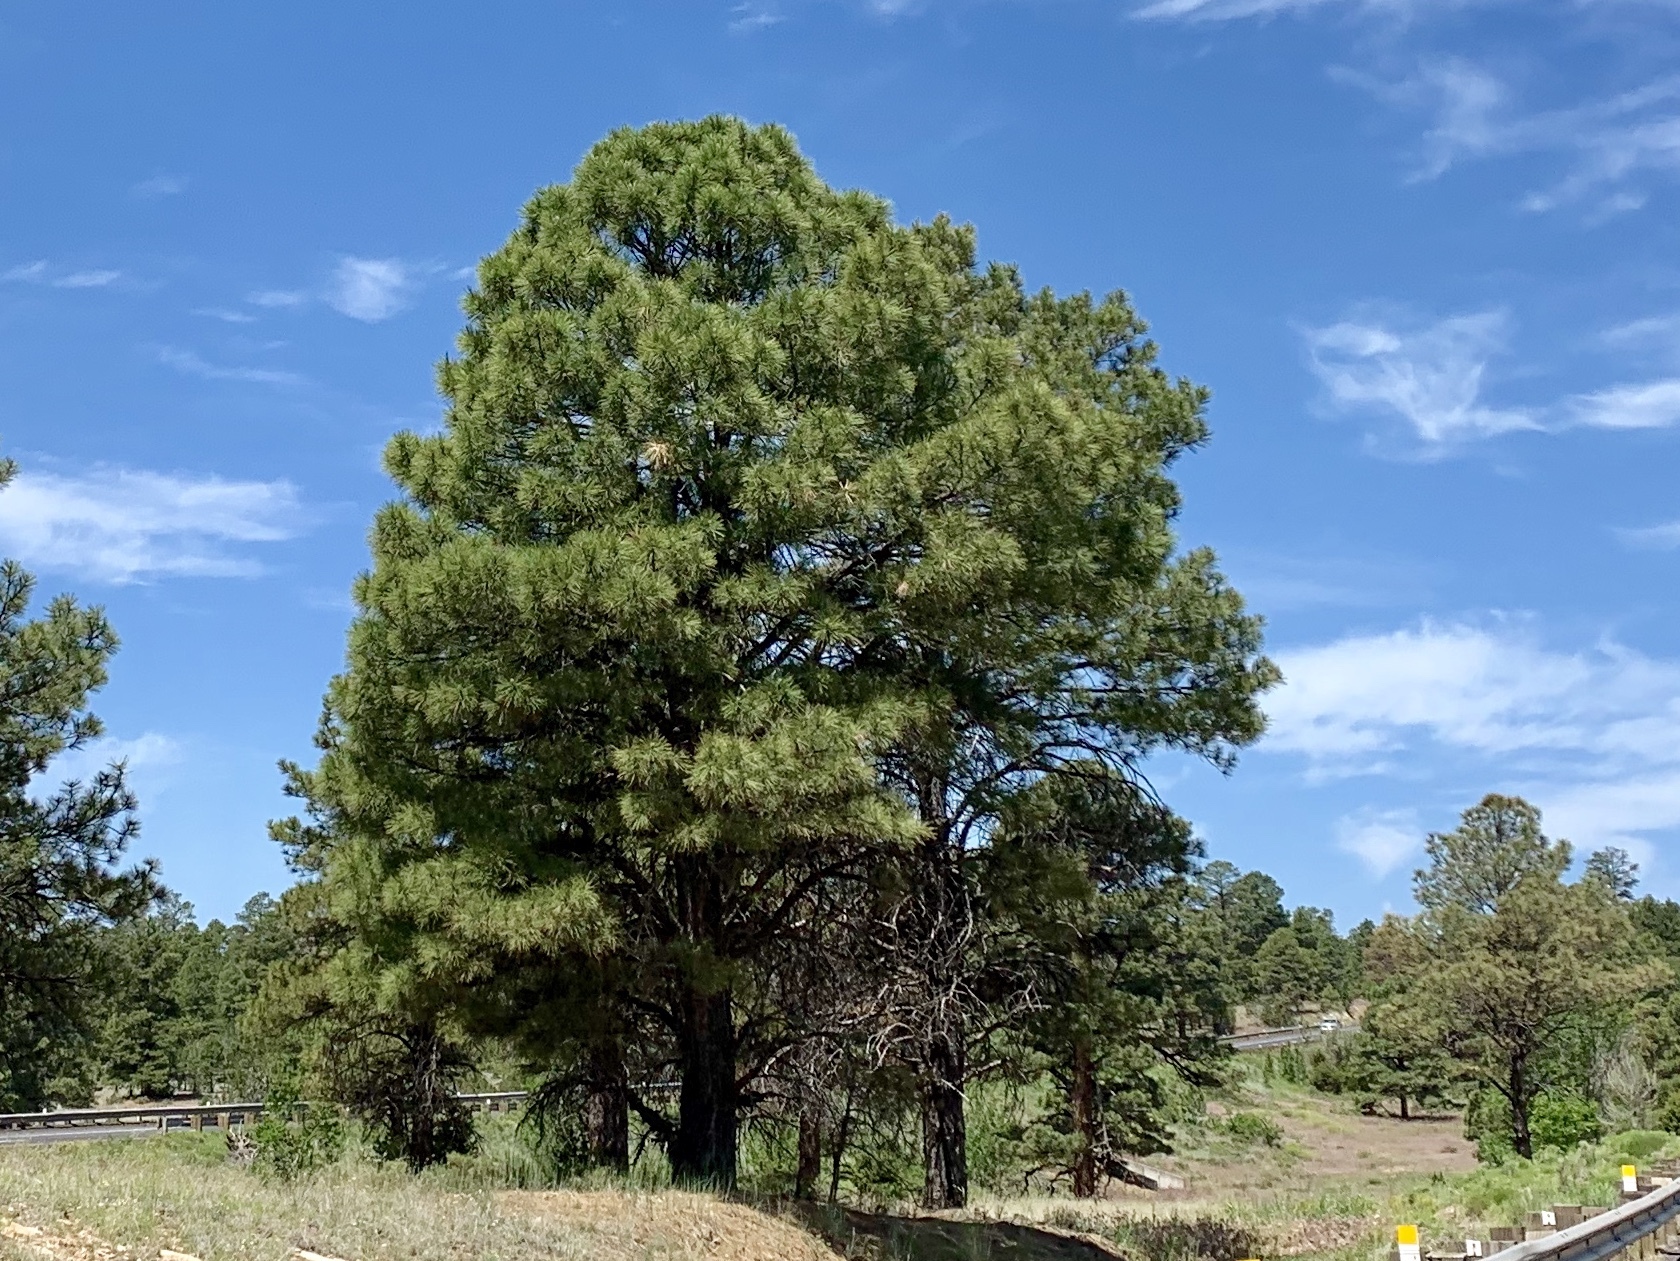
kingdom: Plantae
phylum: Tracheophyta
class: Pinopsida
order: Pinales
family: Pinaceae
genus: Pinus
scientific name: Pinus ponderosa
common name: Western yellow-pine
